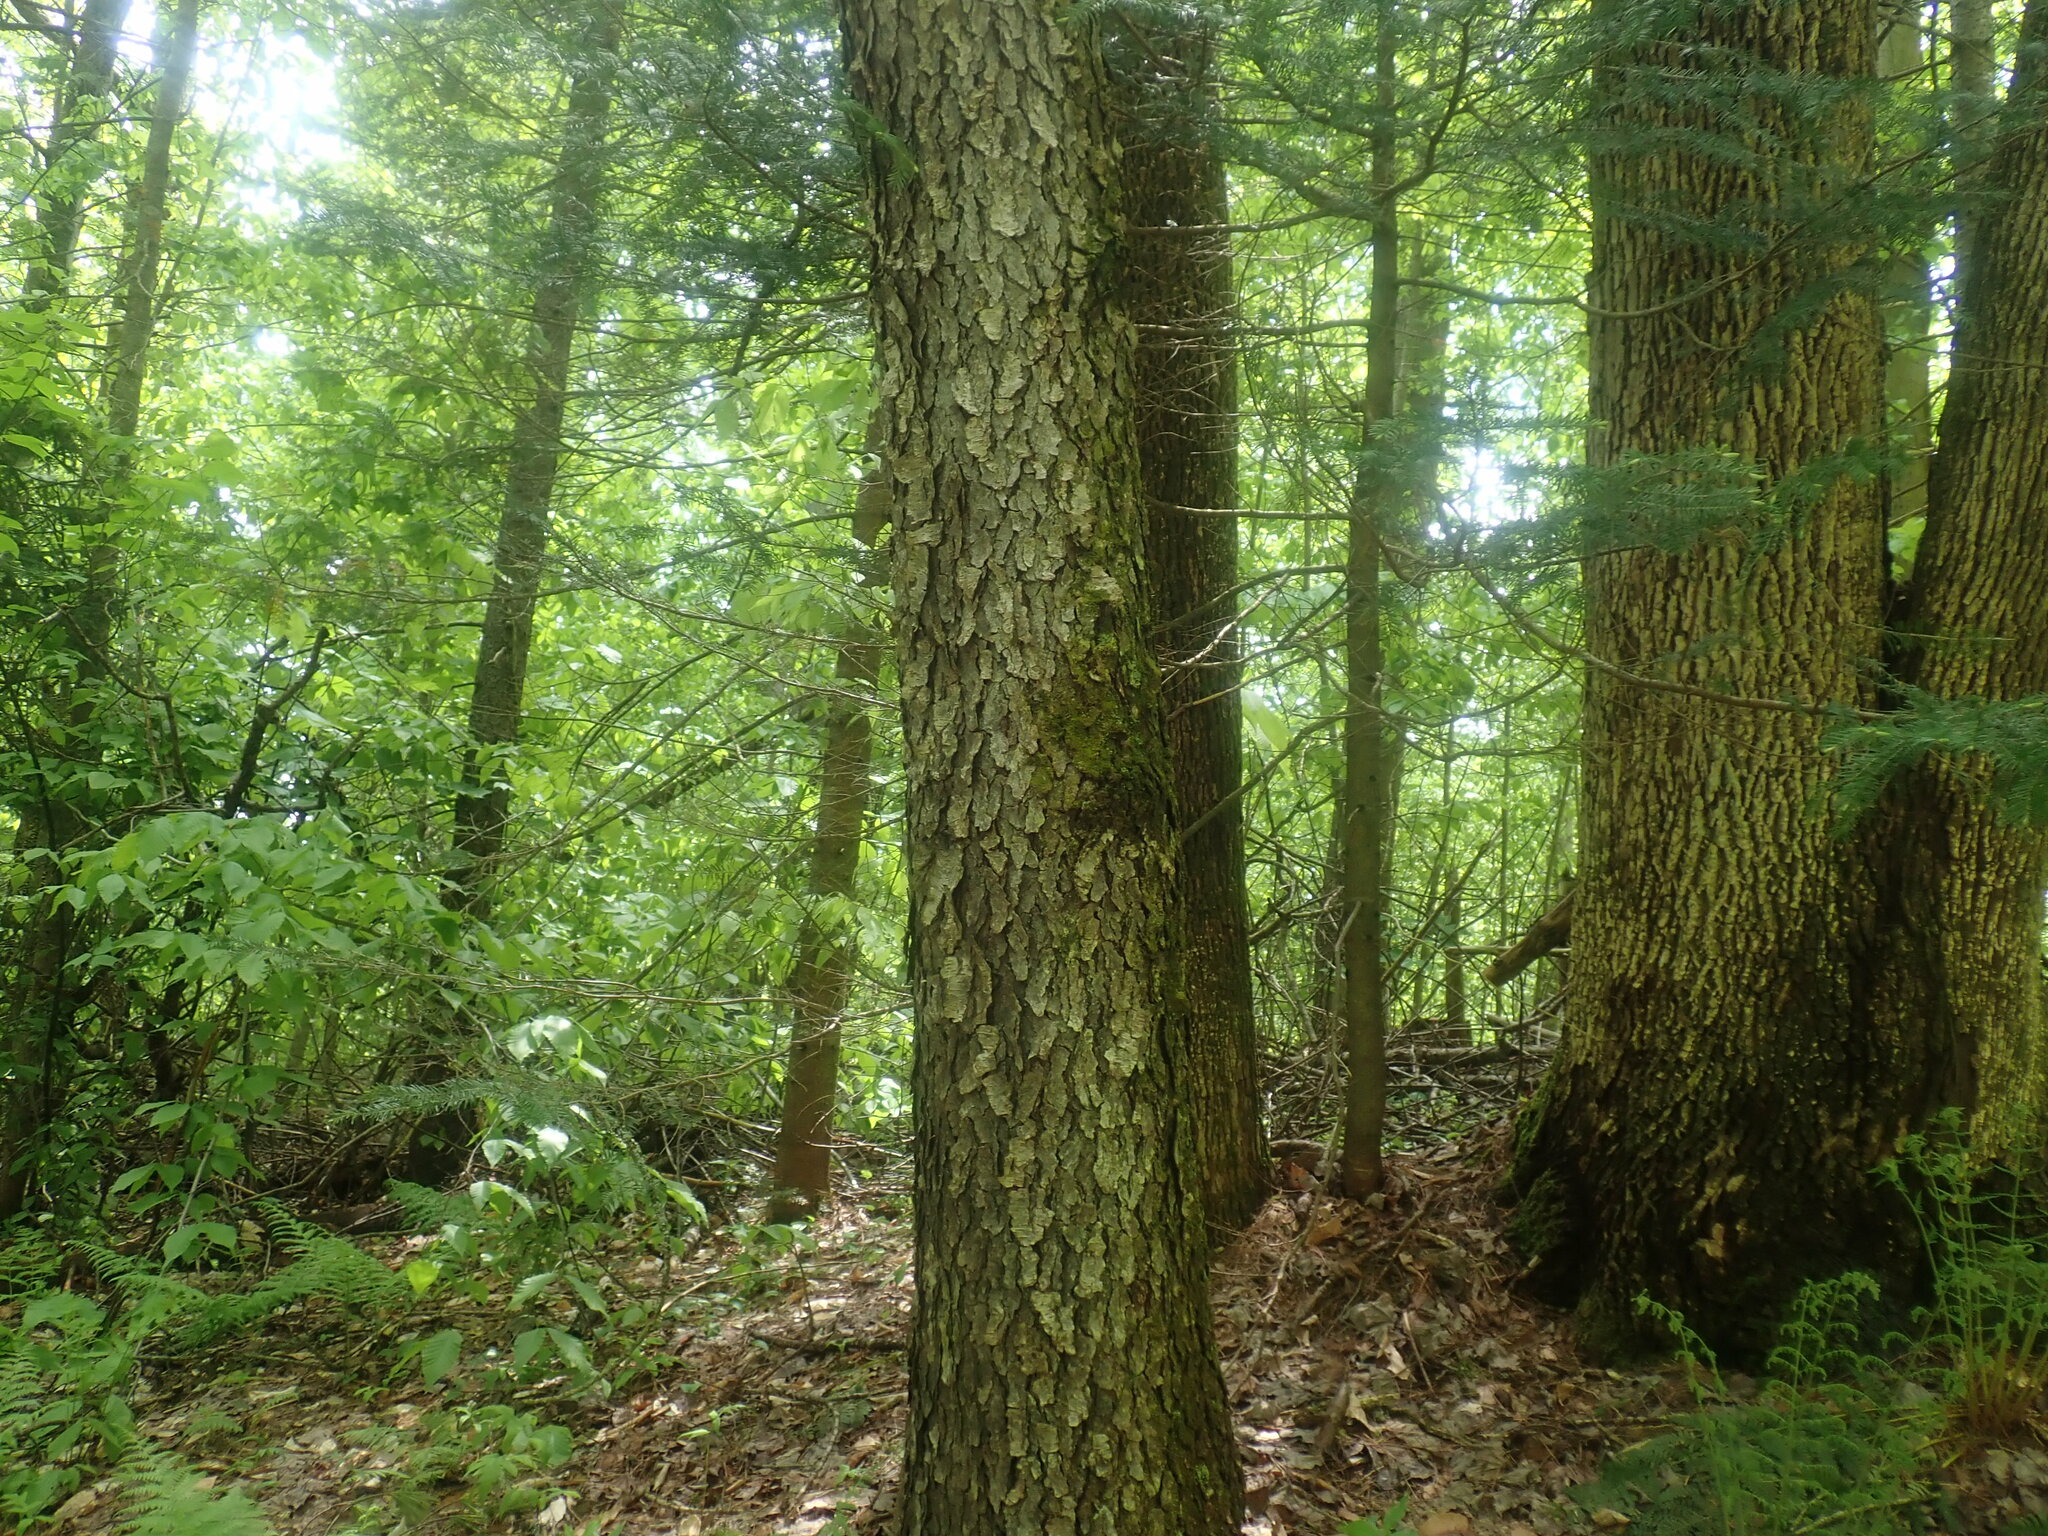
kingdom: Plantae
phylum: Tracheophyta
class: Magnoliopsida
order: Rosales
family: Rosaceae
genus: Prunus
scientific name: Prunus serotina
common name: Black cherry
